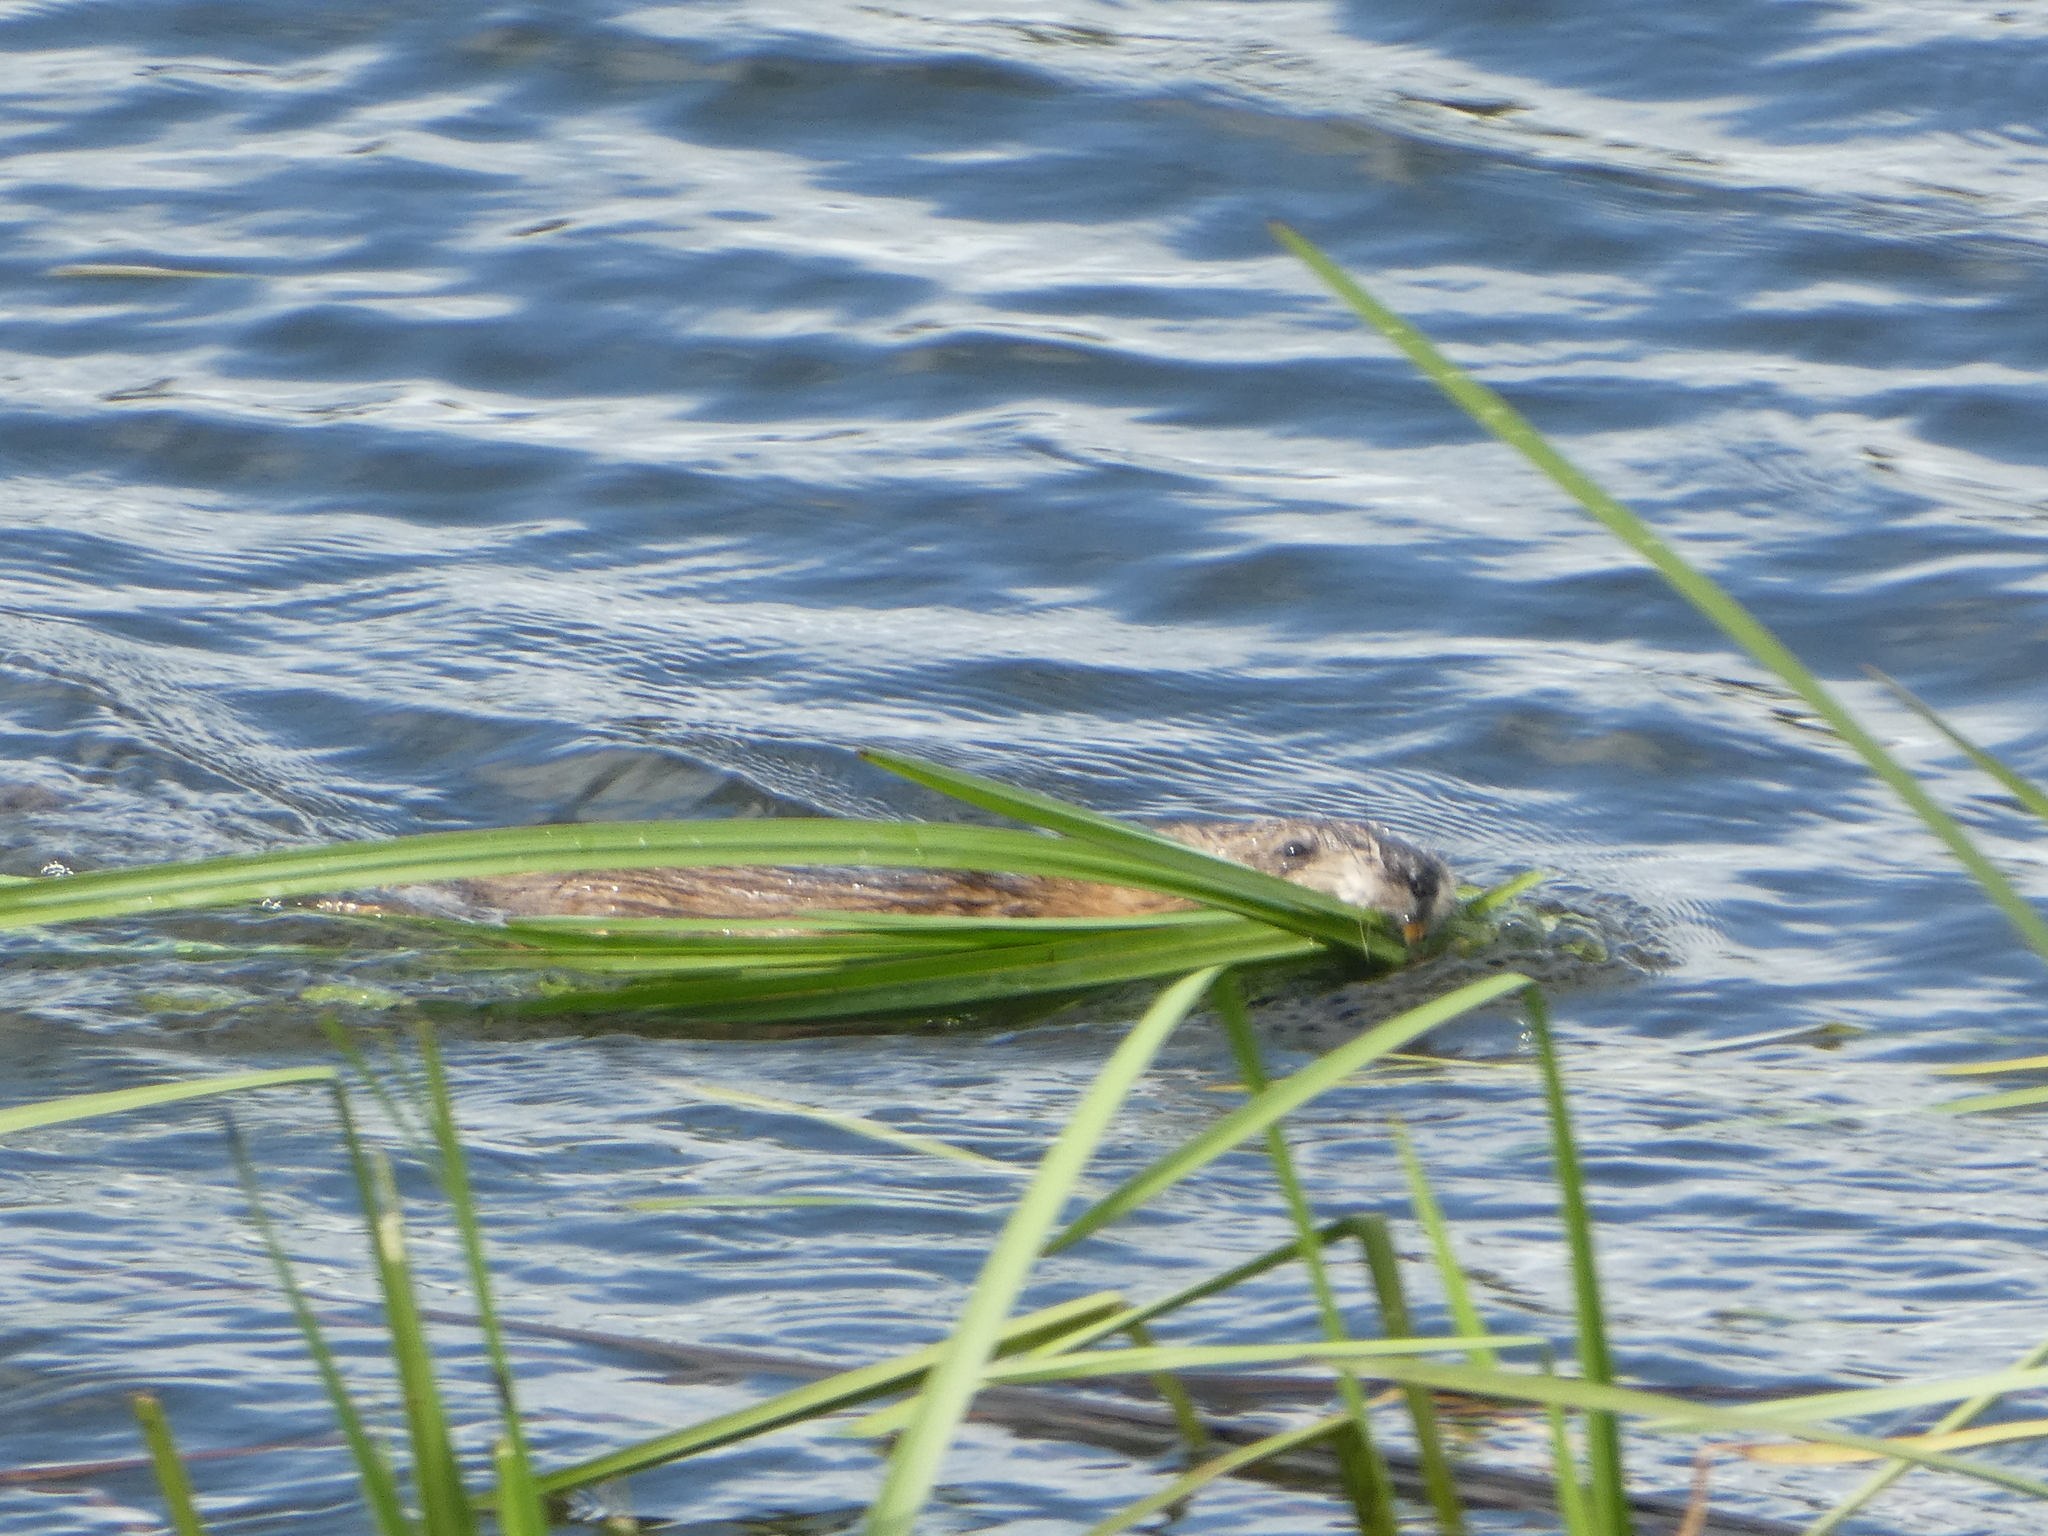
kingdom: Animalia
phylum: Chordata
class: Mammalia
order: Rodentia
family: Cricetidae
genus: Ondatra
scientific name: Ondatra zibethicus
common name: Muskrat
